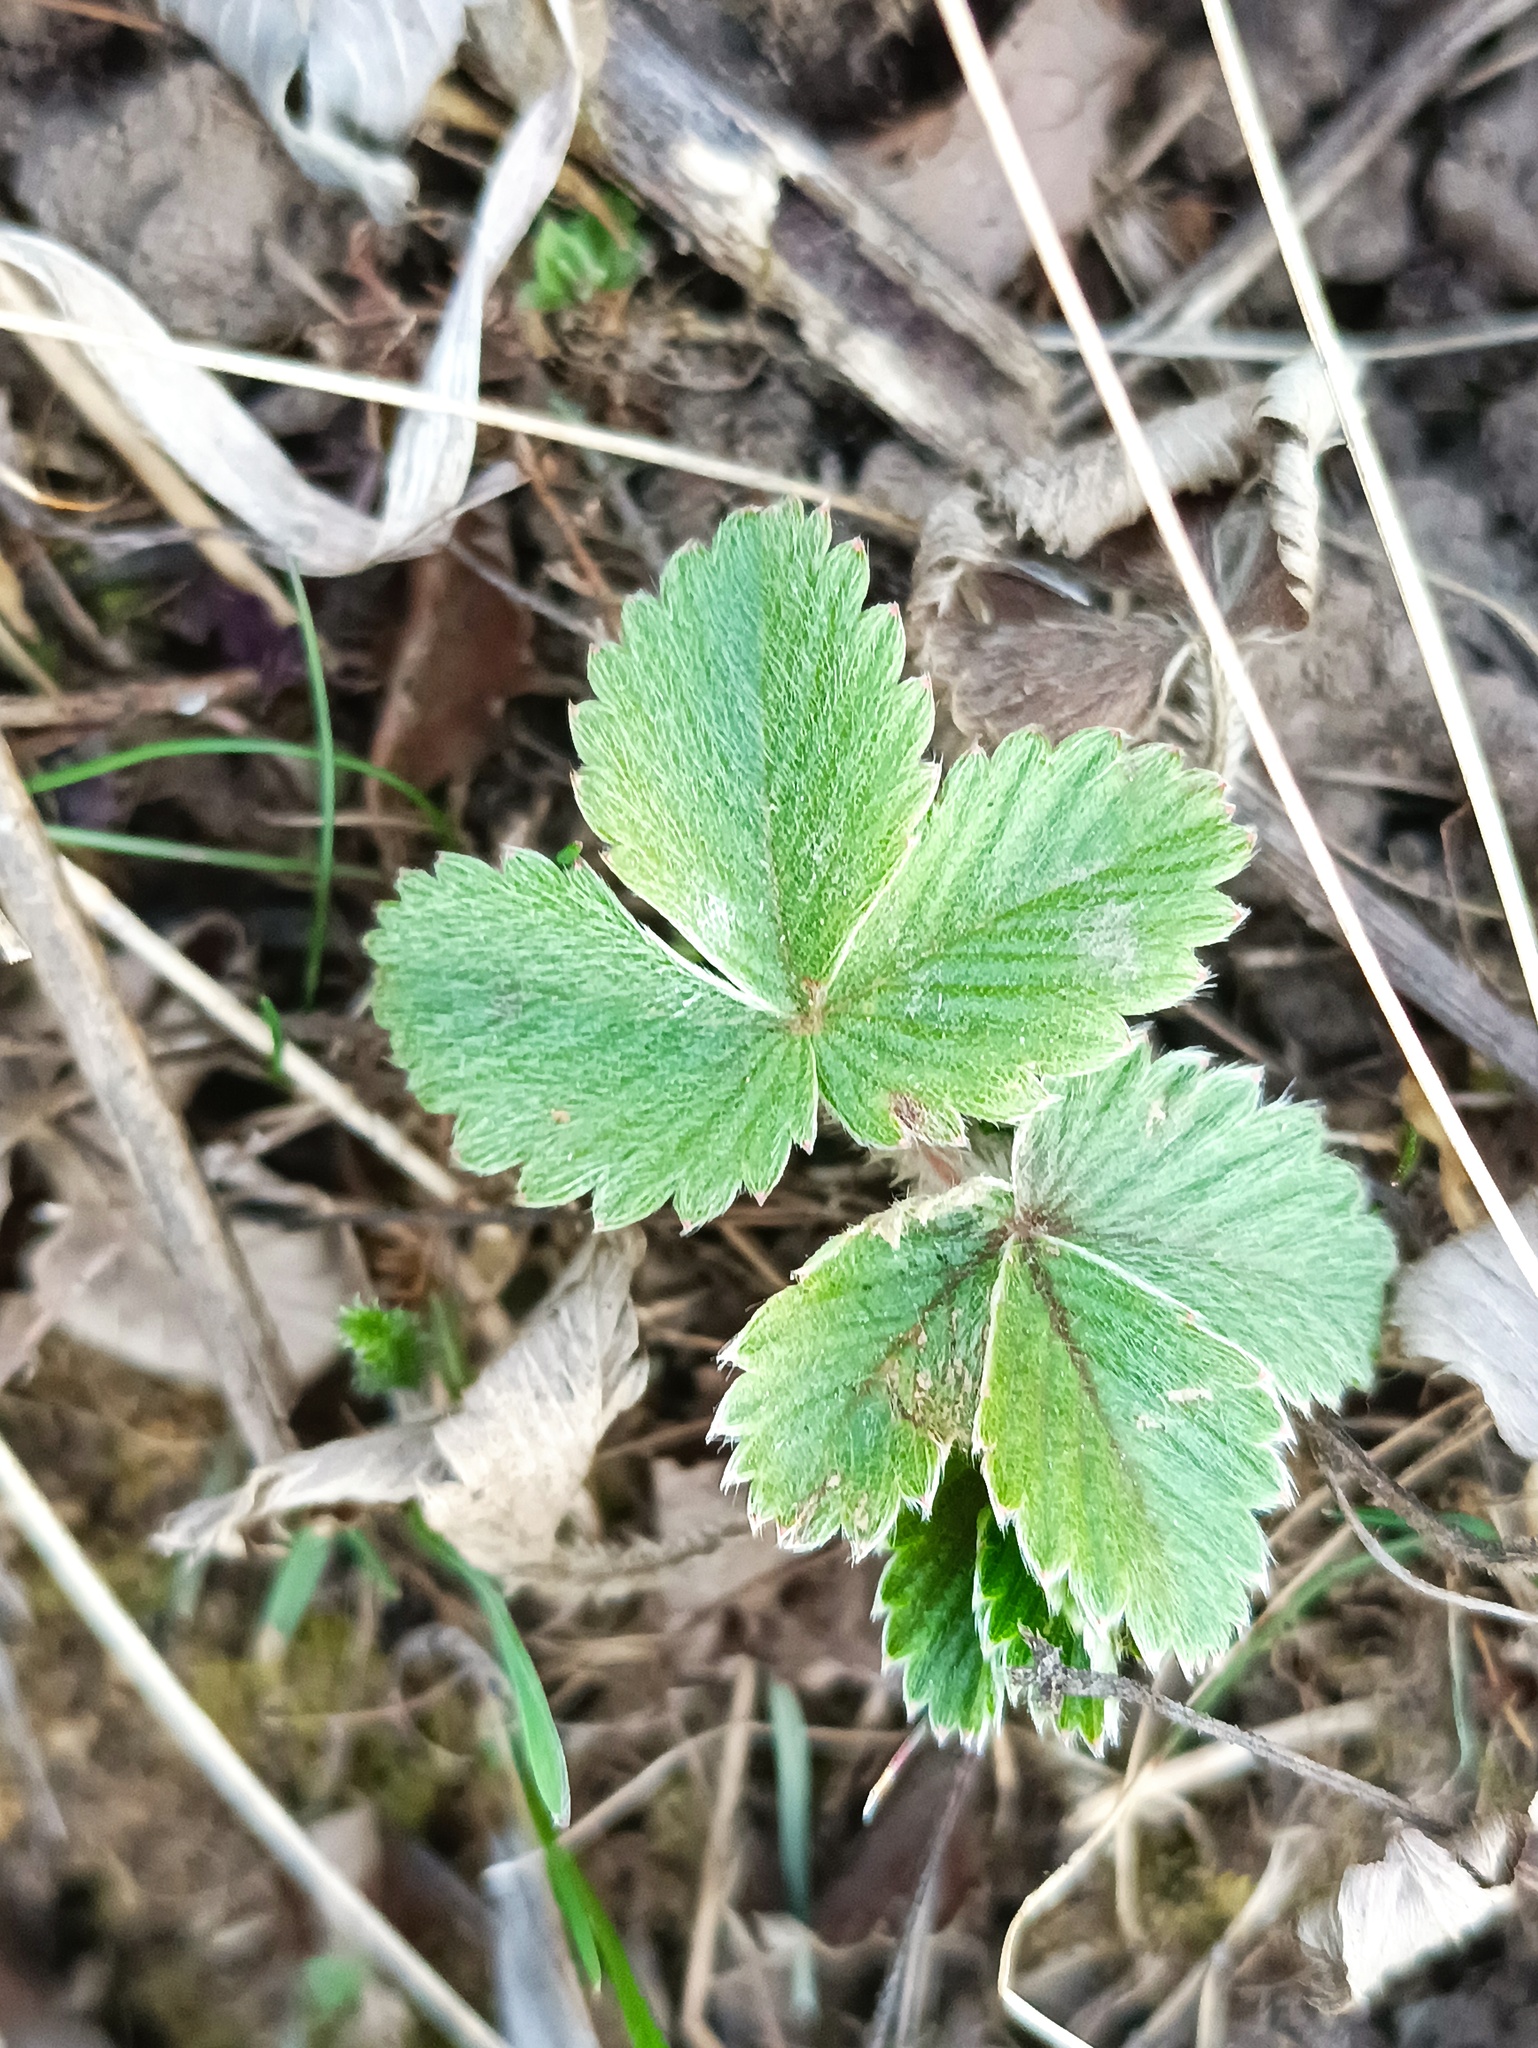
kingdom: Plantae
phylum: Tracheophyta
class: Magnoliopsida
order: Rosales
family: Rosaceae
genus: Fragaria
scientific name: Fragaria vesca
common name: Wild strawberry
